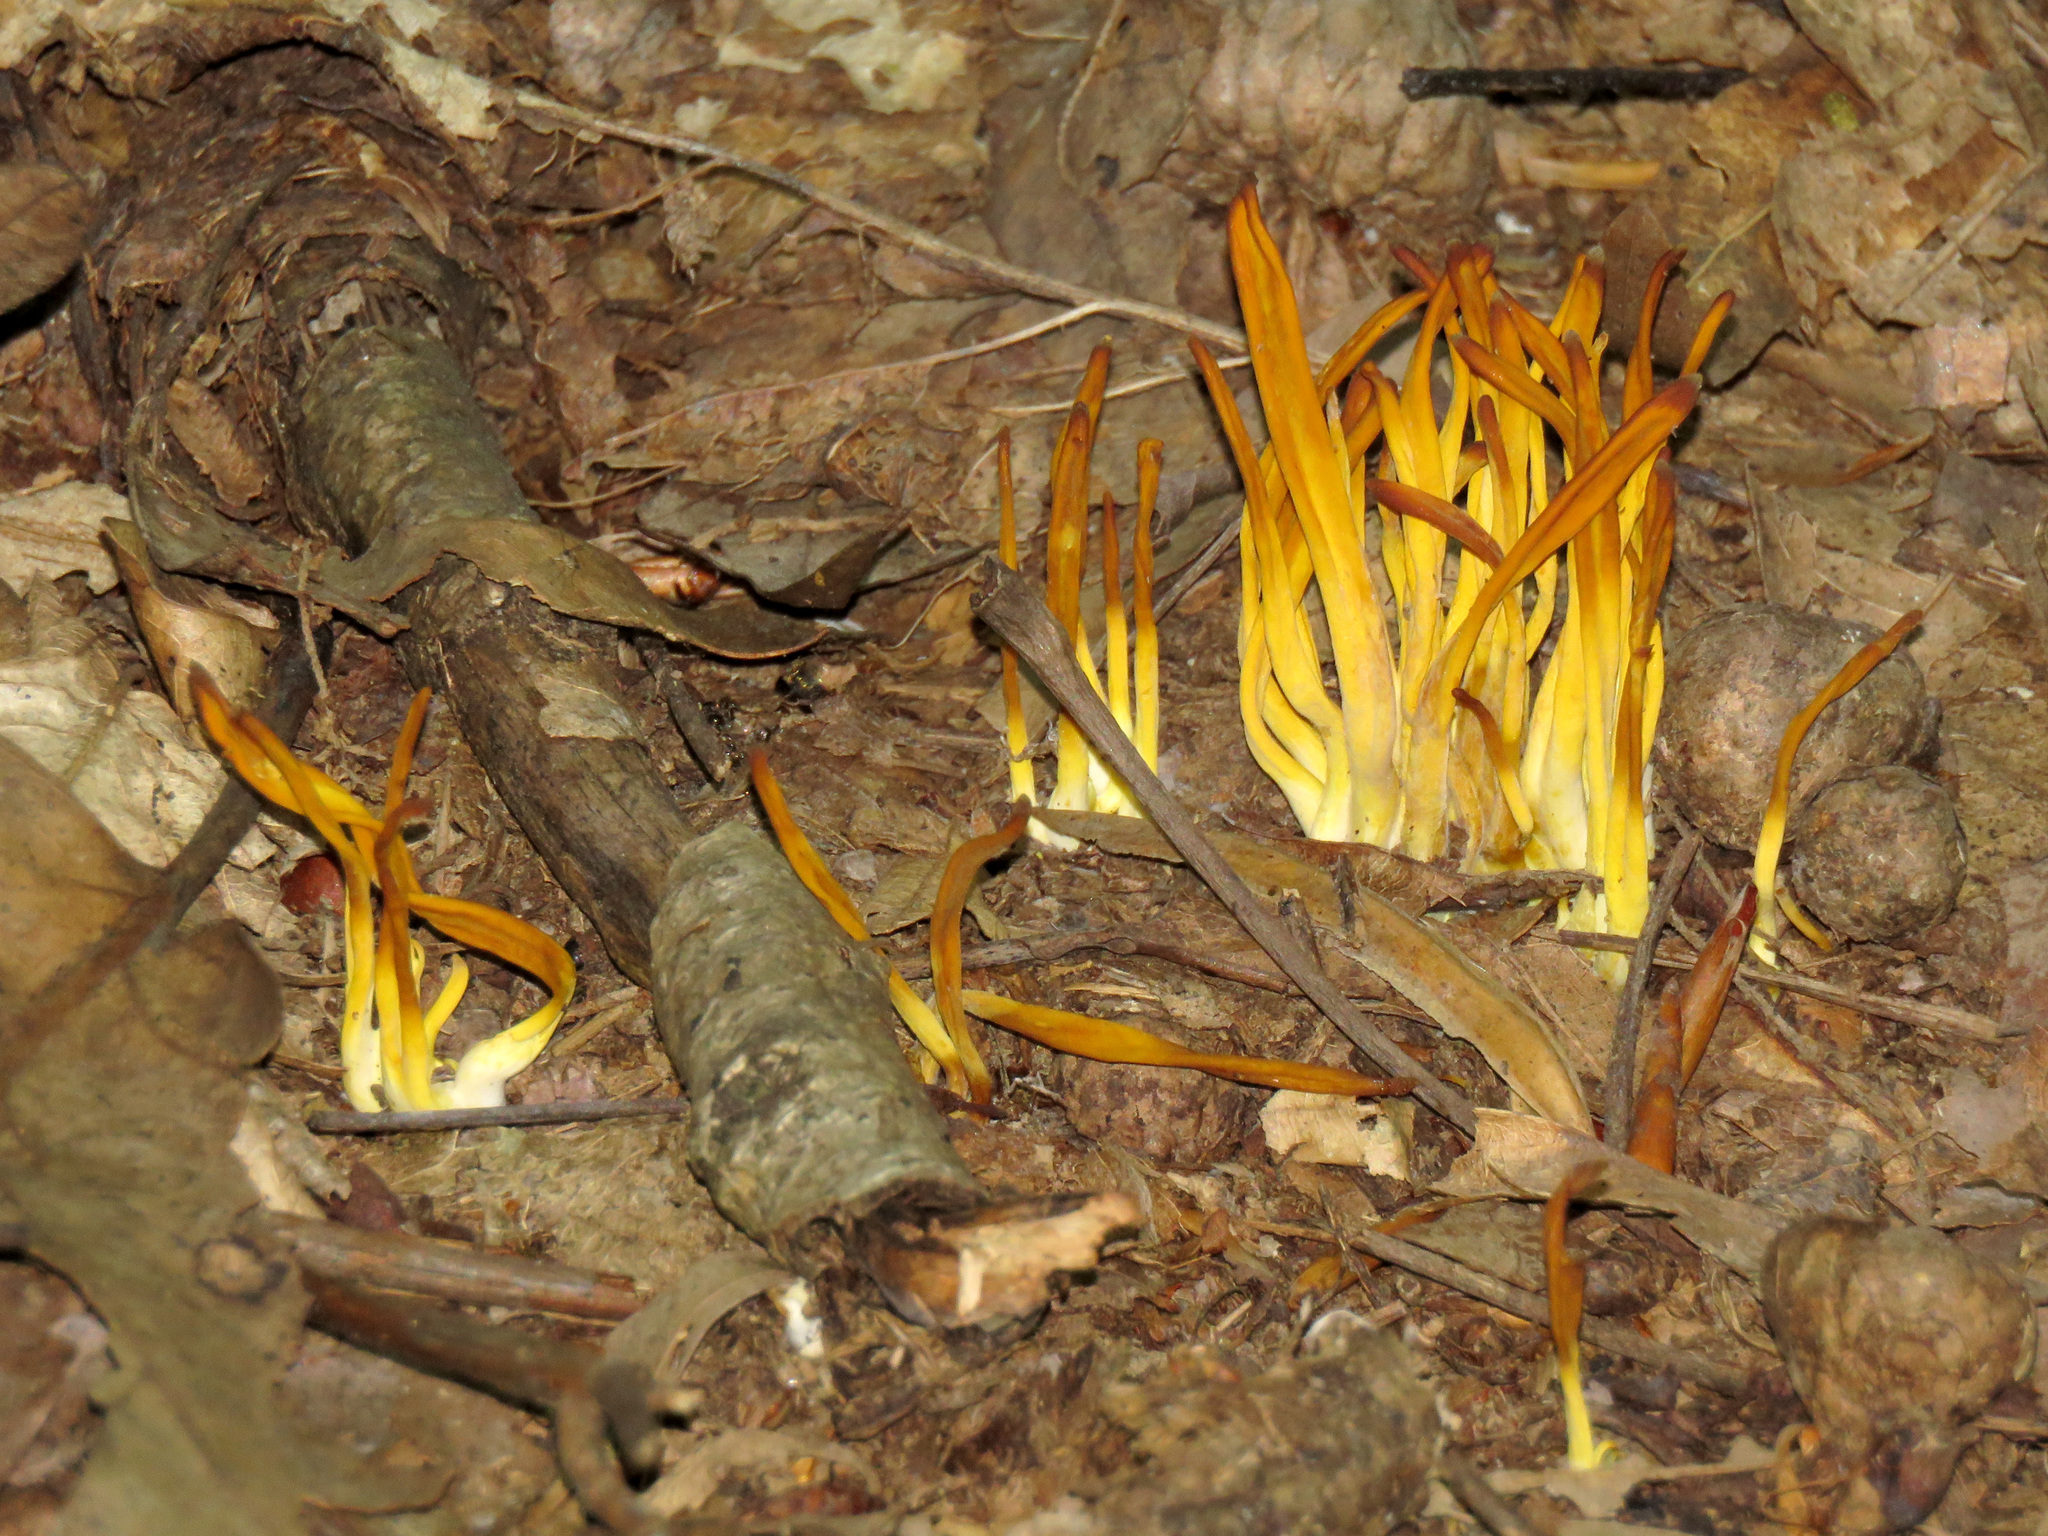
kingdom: Fungi
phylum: Basidiomycota
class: Agaricomycetes
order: Agaricales
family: Clavariaceae
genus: Clavulinopsis
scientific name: Clavulinopsis fusiformis
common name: Golden spindles
